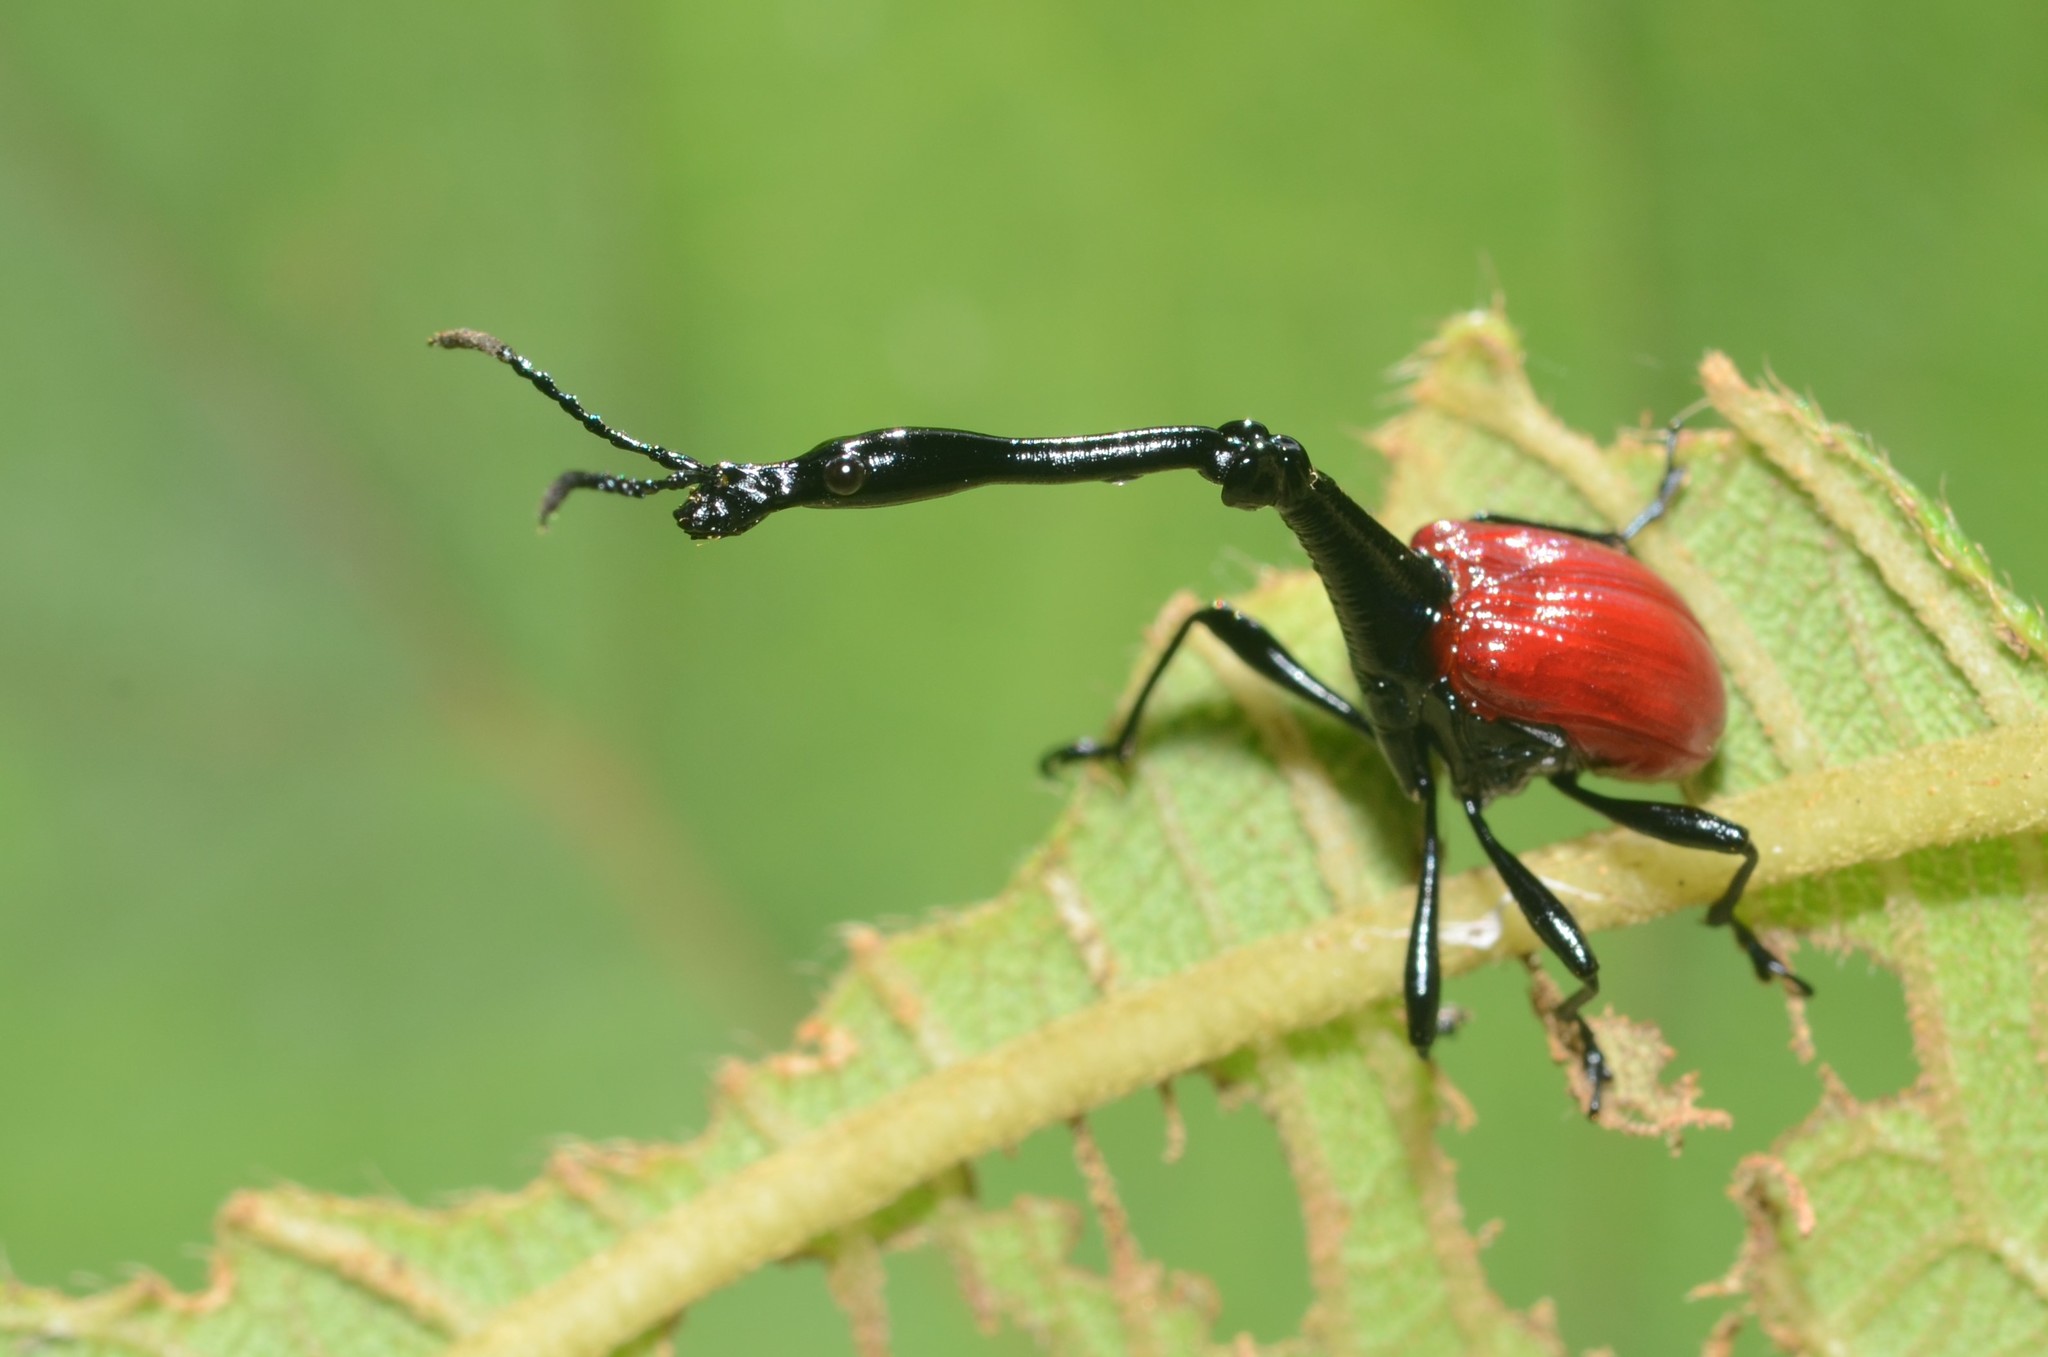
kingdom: Animalia
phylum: Arthropoda
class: Insecta
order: Coleoptera
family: Attelabidae
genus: Trachelophorus
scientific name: Trachelophorus giraffa
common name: Giraffe weevil
